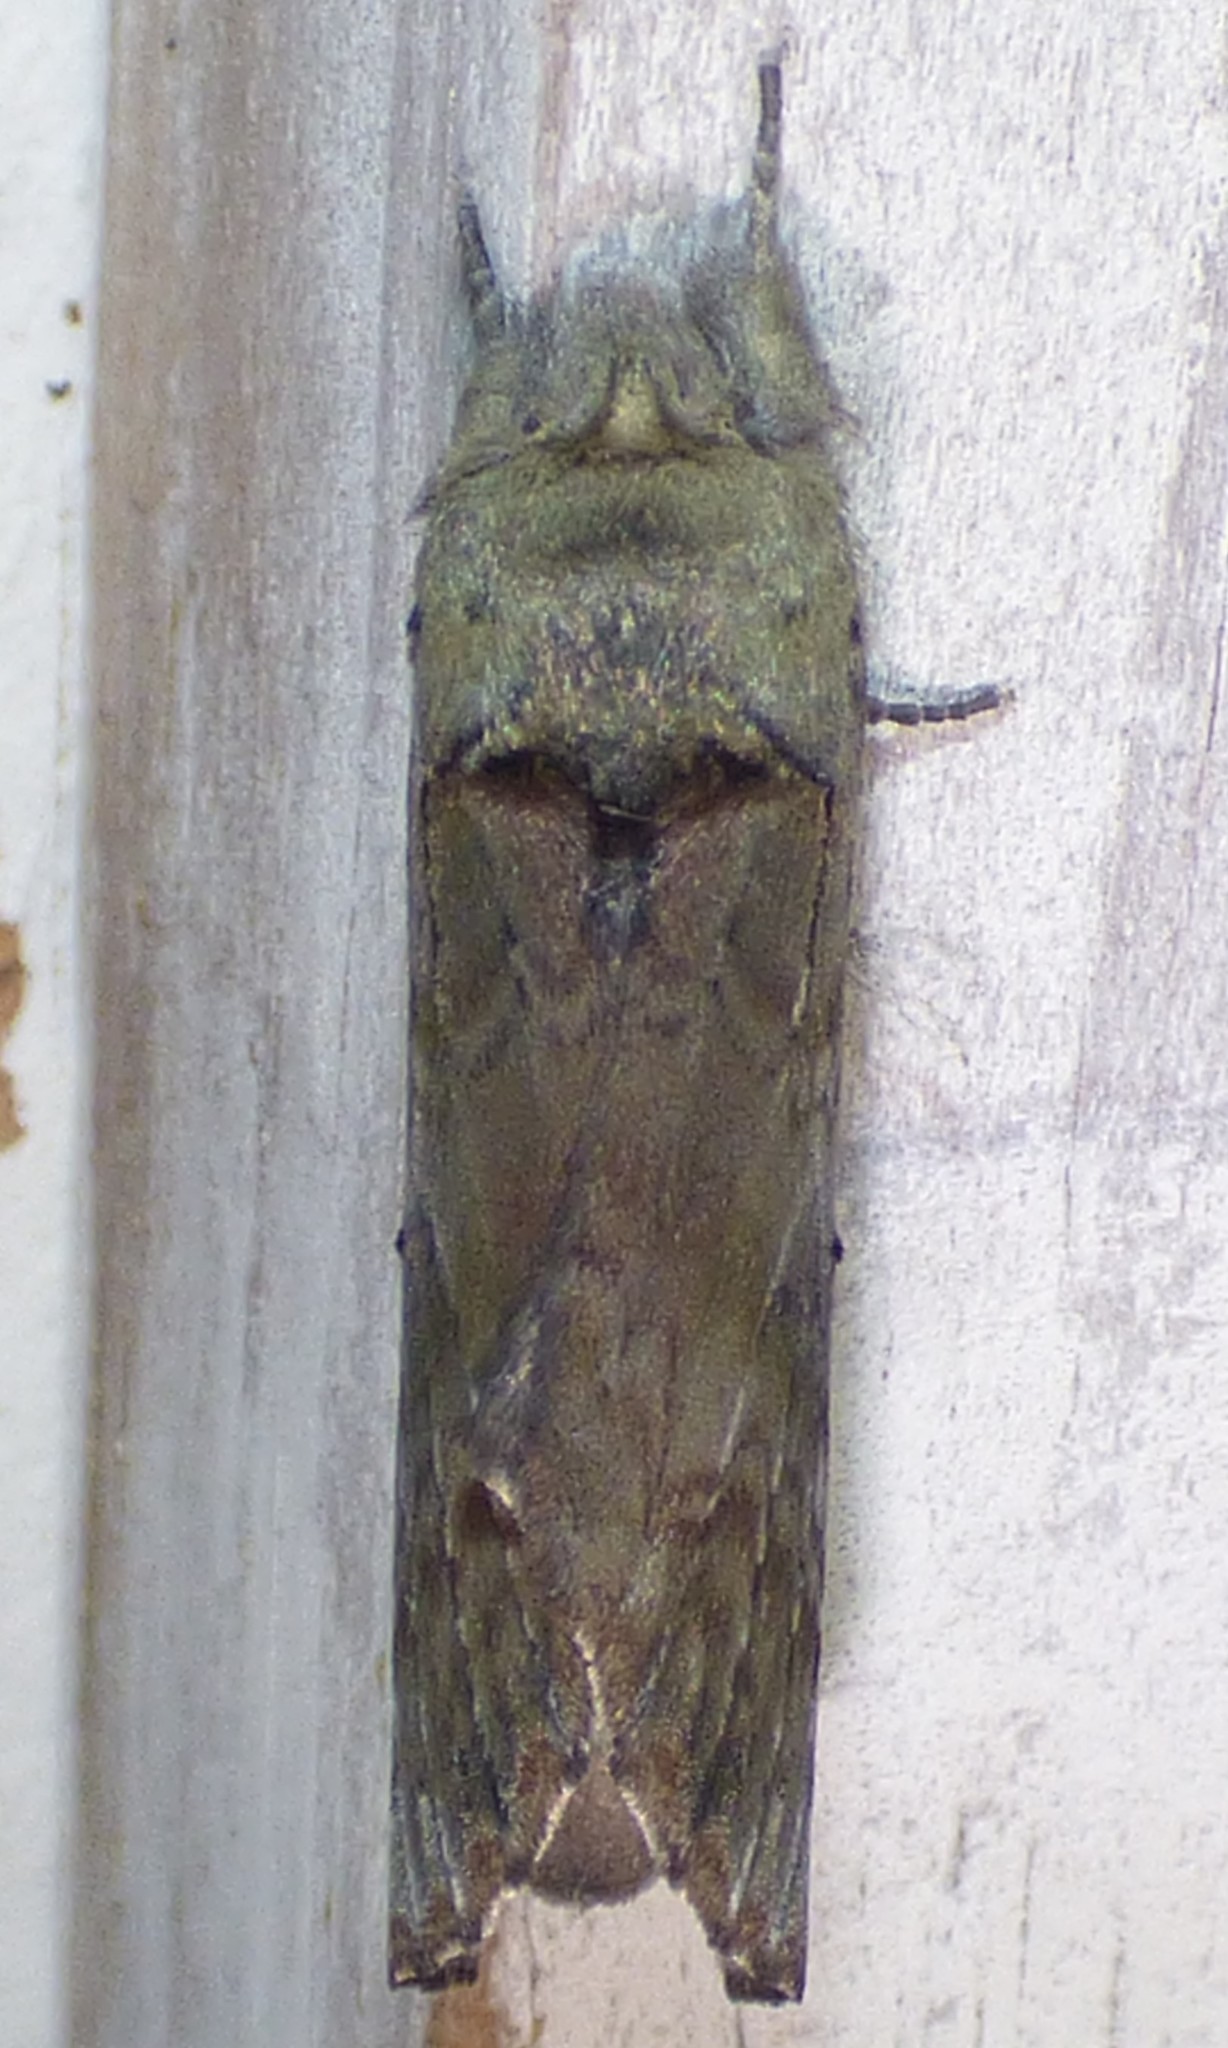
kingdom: Animalia
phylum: Arthropoda
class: Insecta
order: Lepidoptera
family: Notodontidae
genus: Schizura
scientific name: Schizura
